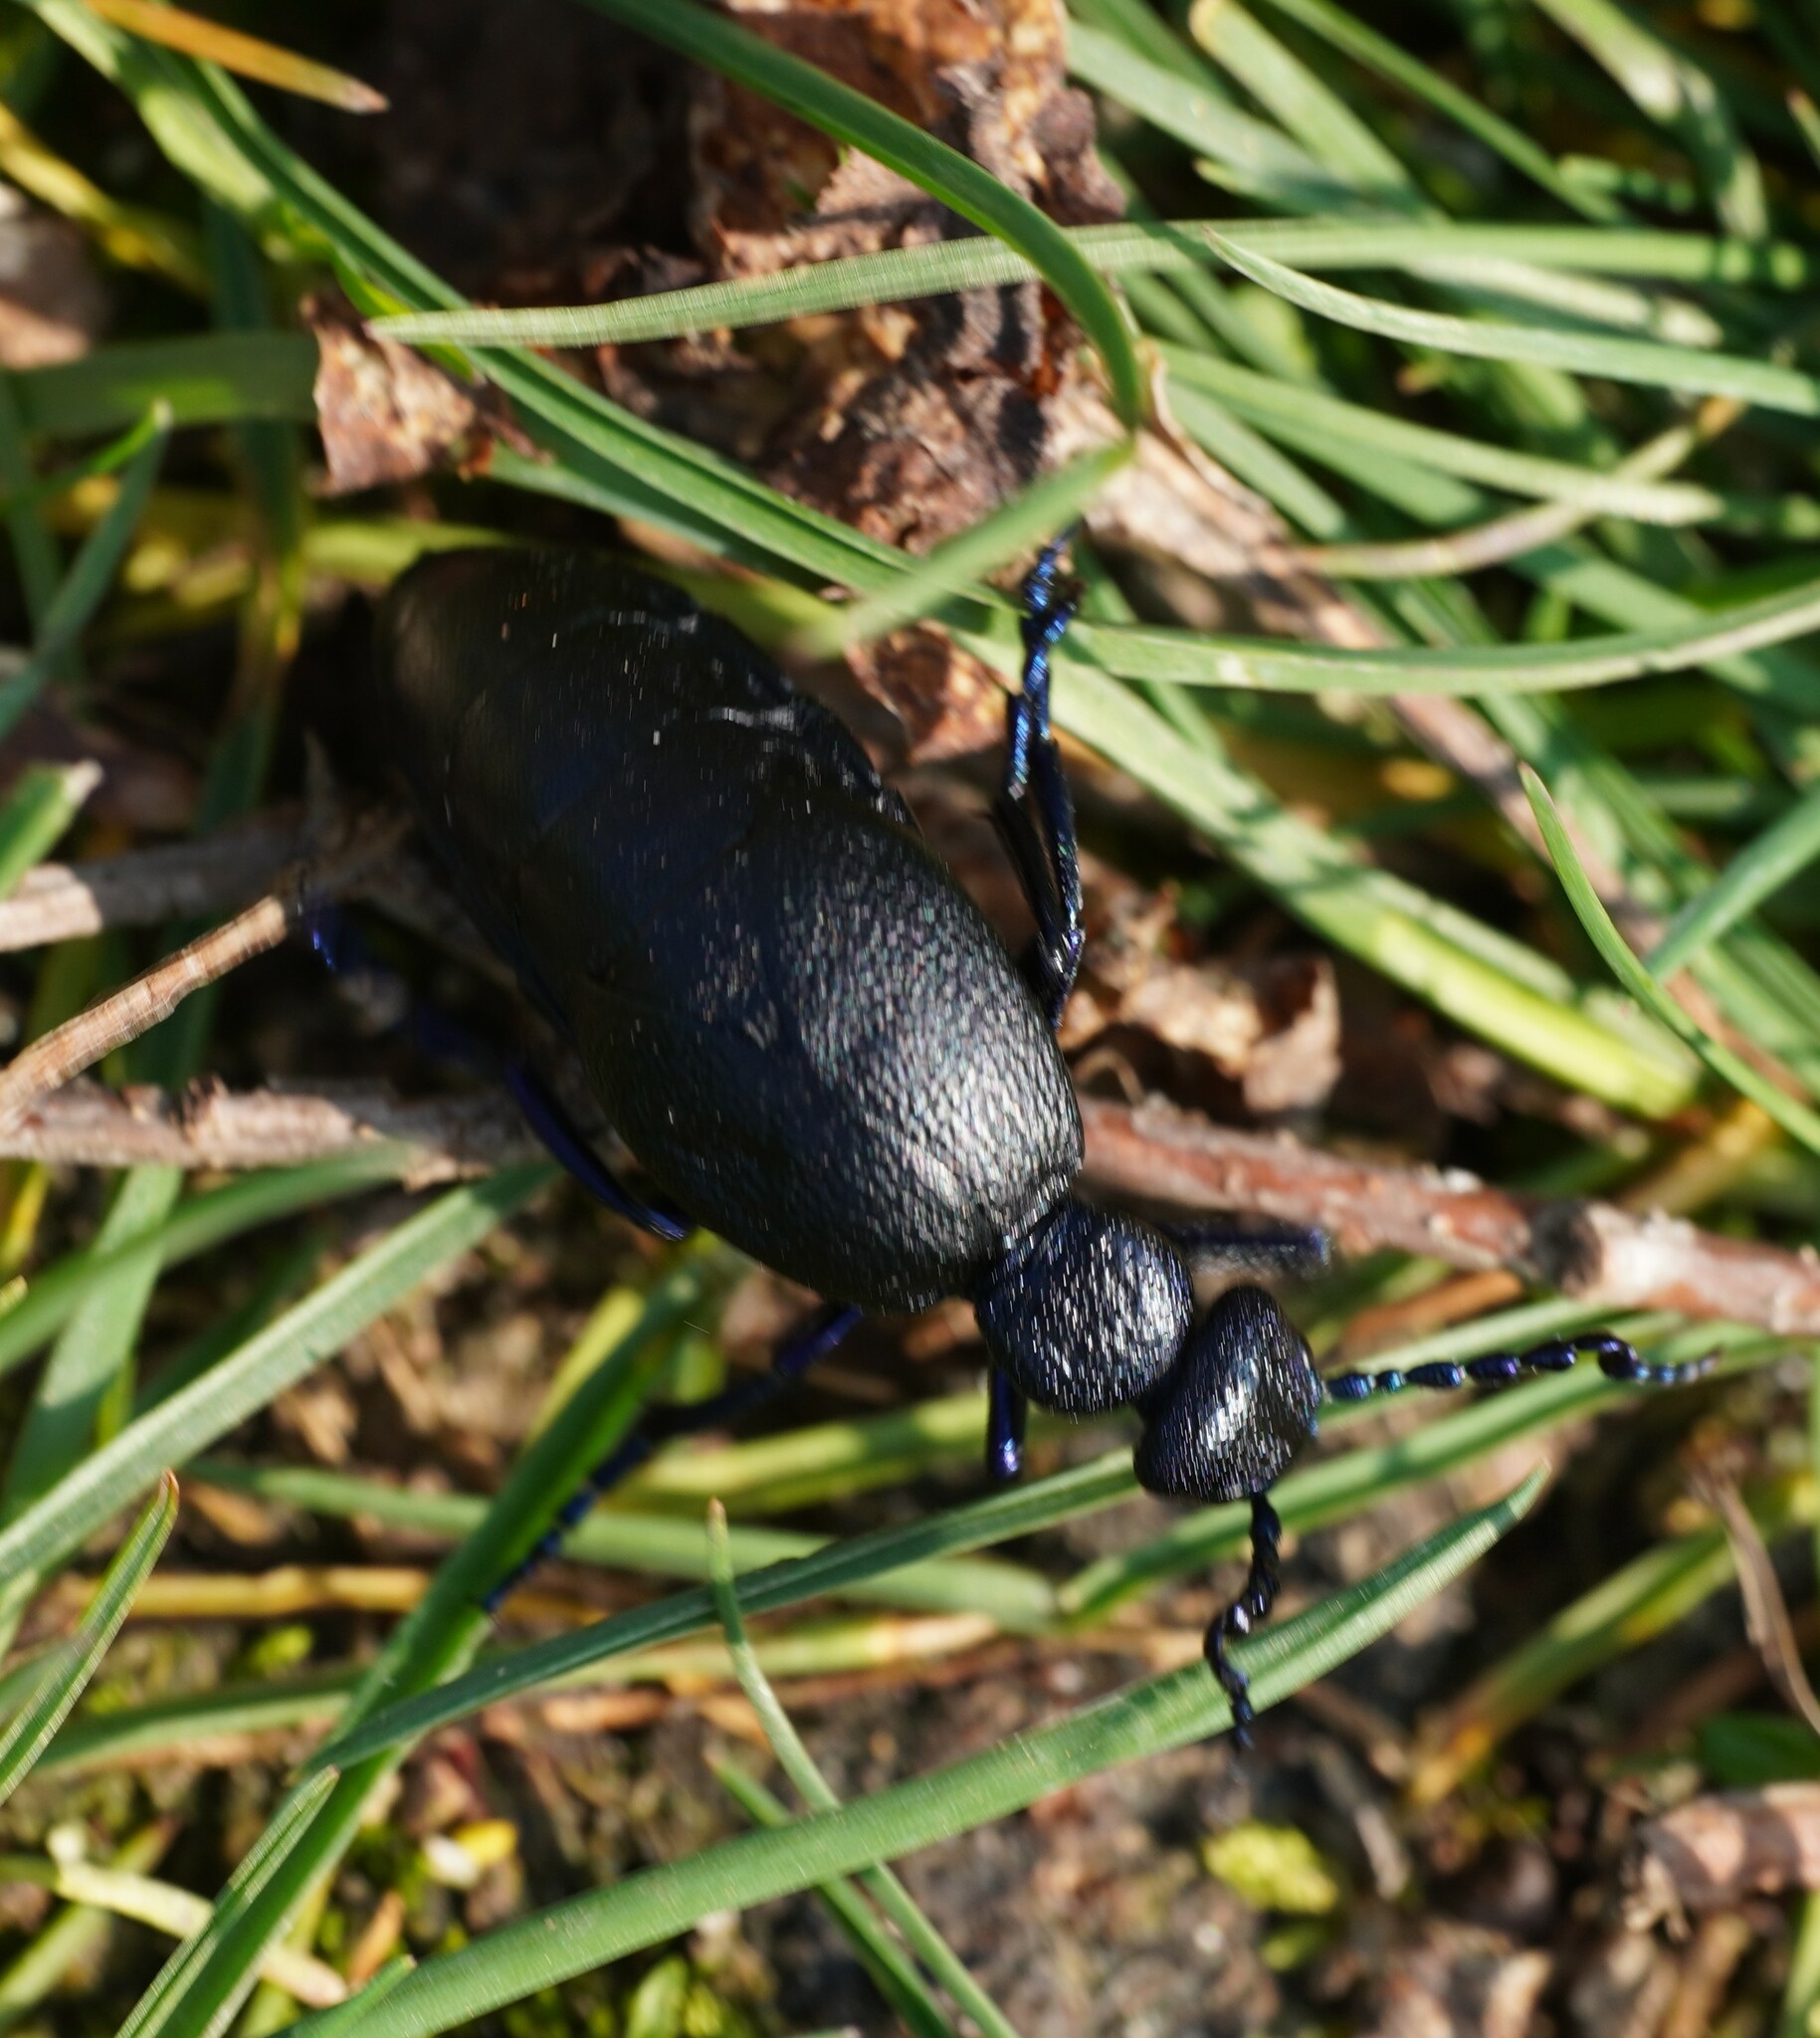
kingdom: Animalia
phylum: Arthropoda
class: Insecta
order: Coleoptera
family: Meloidae
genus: Meloe
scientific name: Meloe proscarabaeus
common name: Black oil-beetle
